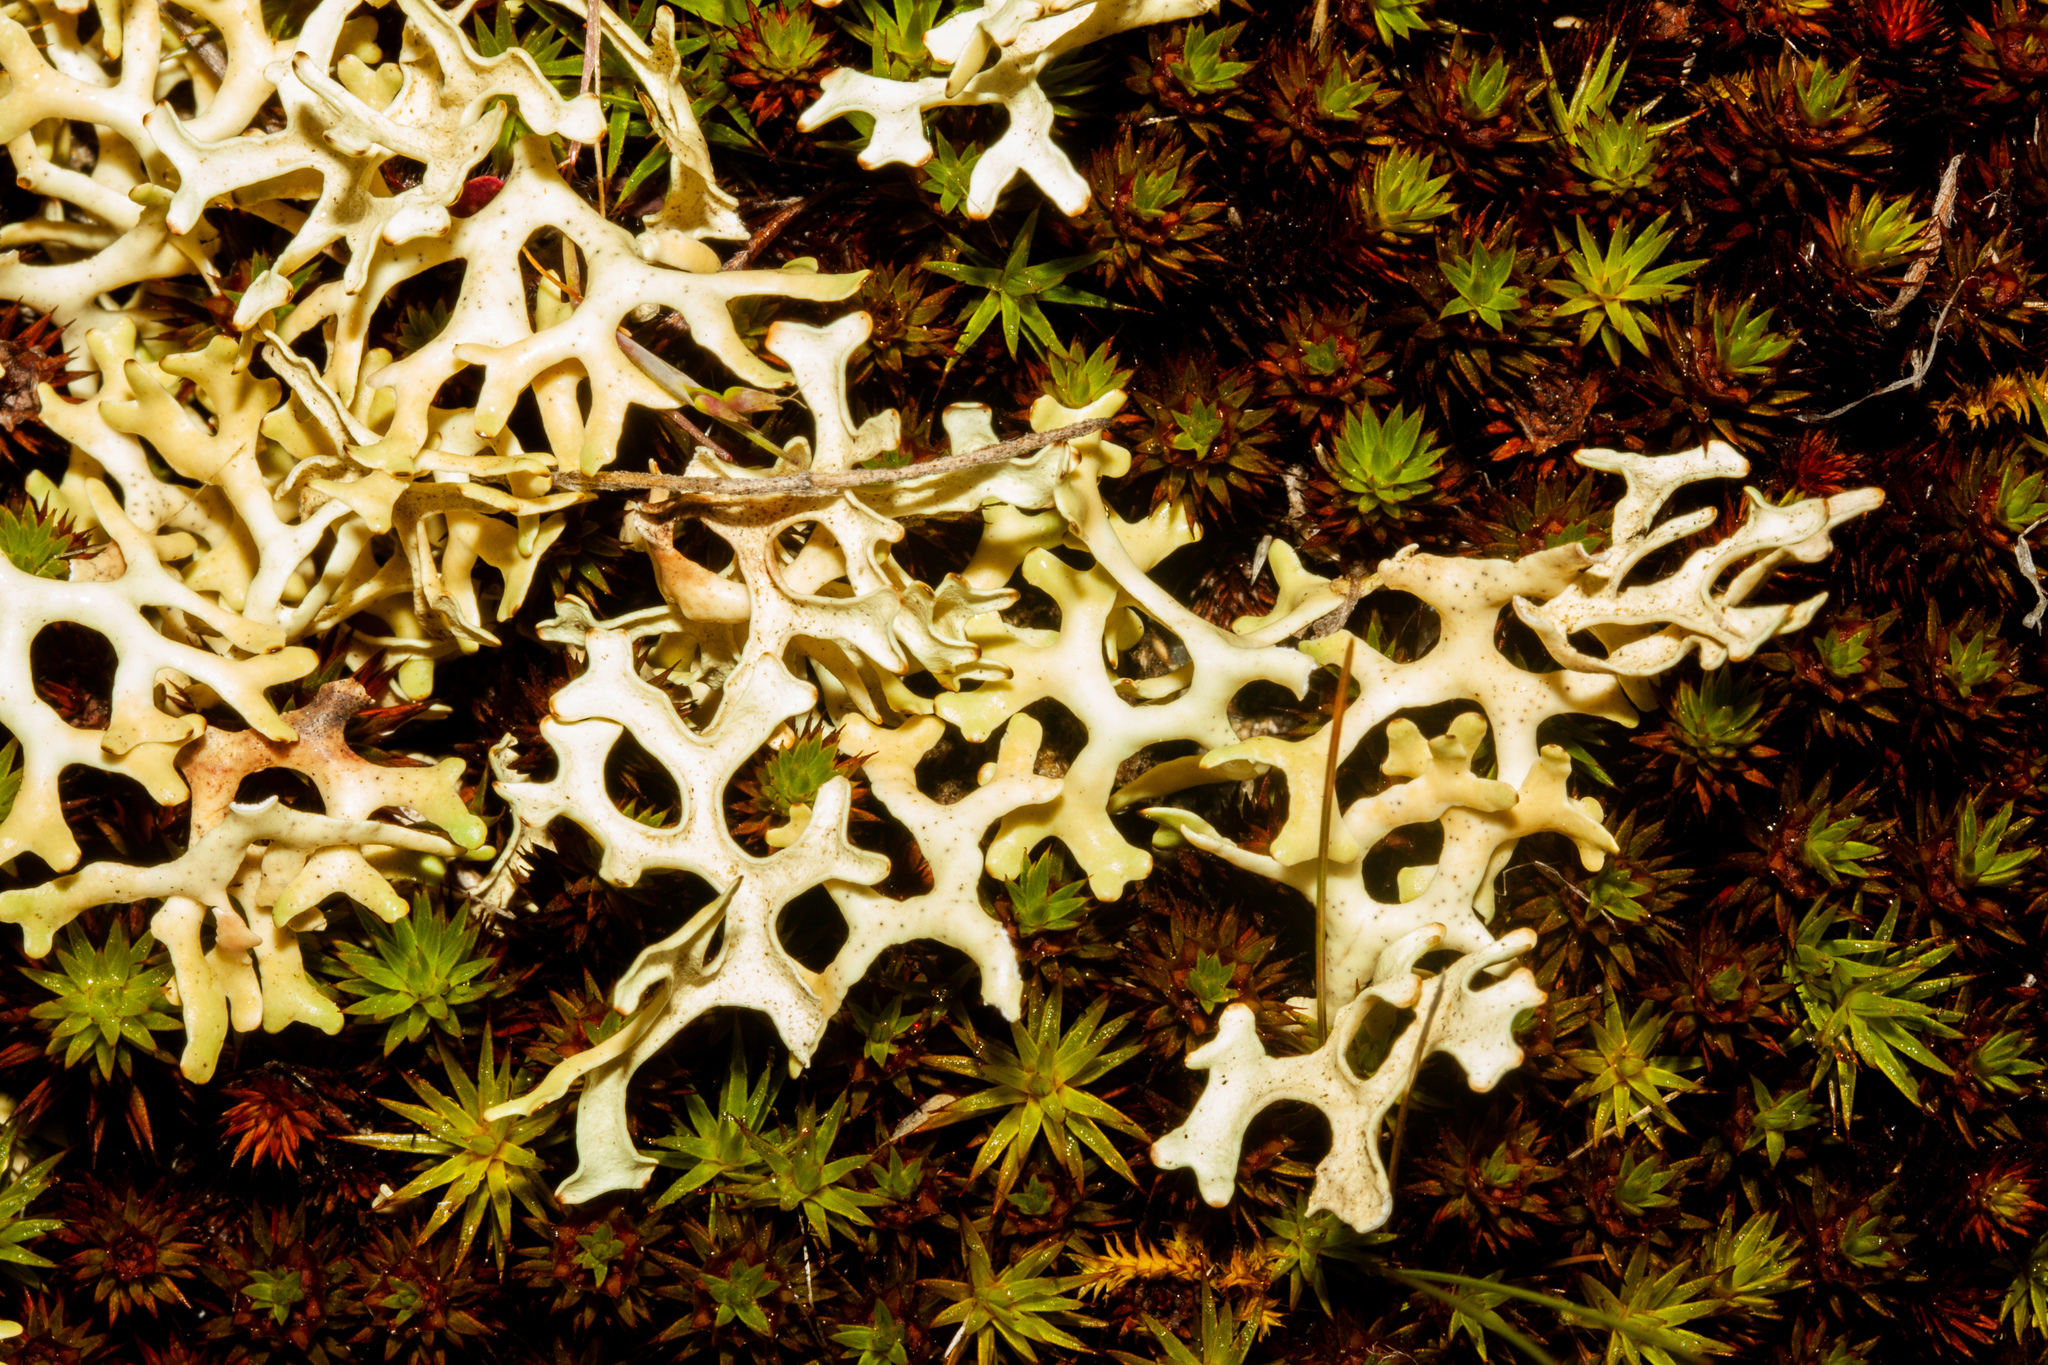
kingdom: Fungi
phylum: Ascomycota
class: Lecanoromycetes
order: Lecanorales
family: Parmeliaceae
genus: Xanthoparmelia
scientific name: Xanthoparmelia semiviridis
